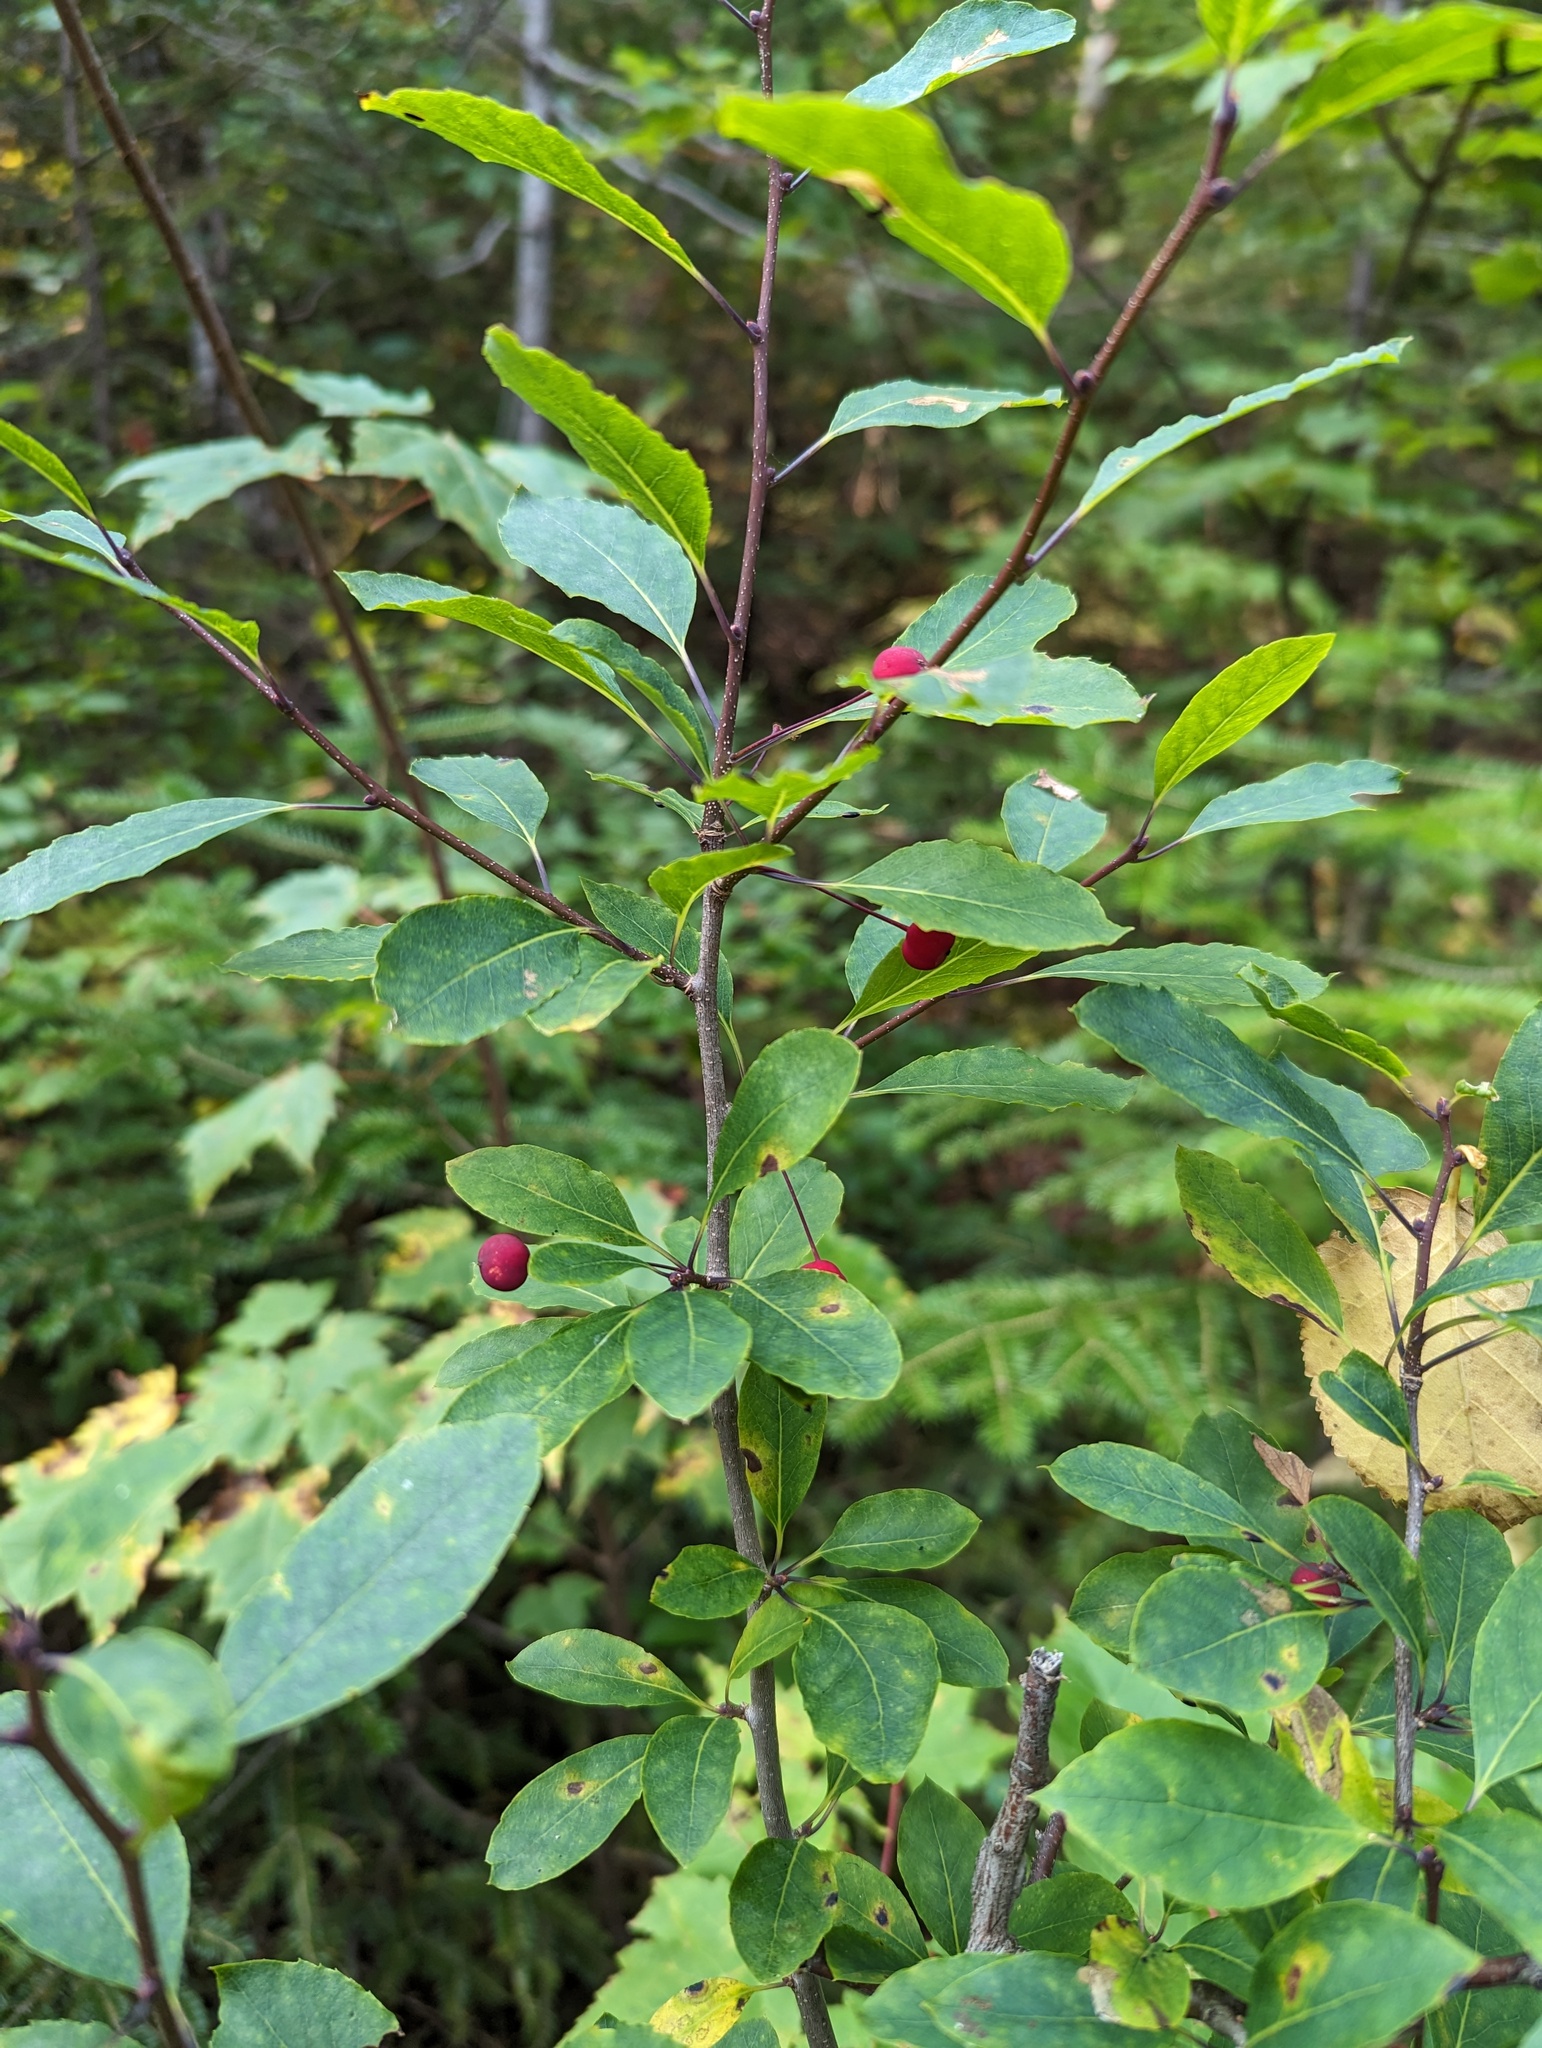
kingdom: Plantae
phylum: Tracheophyta
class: Magnoliopsida
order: Aquifoliales
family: Aquifoliaceae
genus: Ilex
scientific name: Ilex mucronata
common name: Catberry
